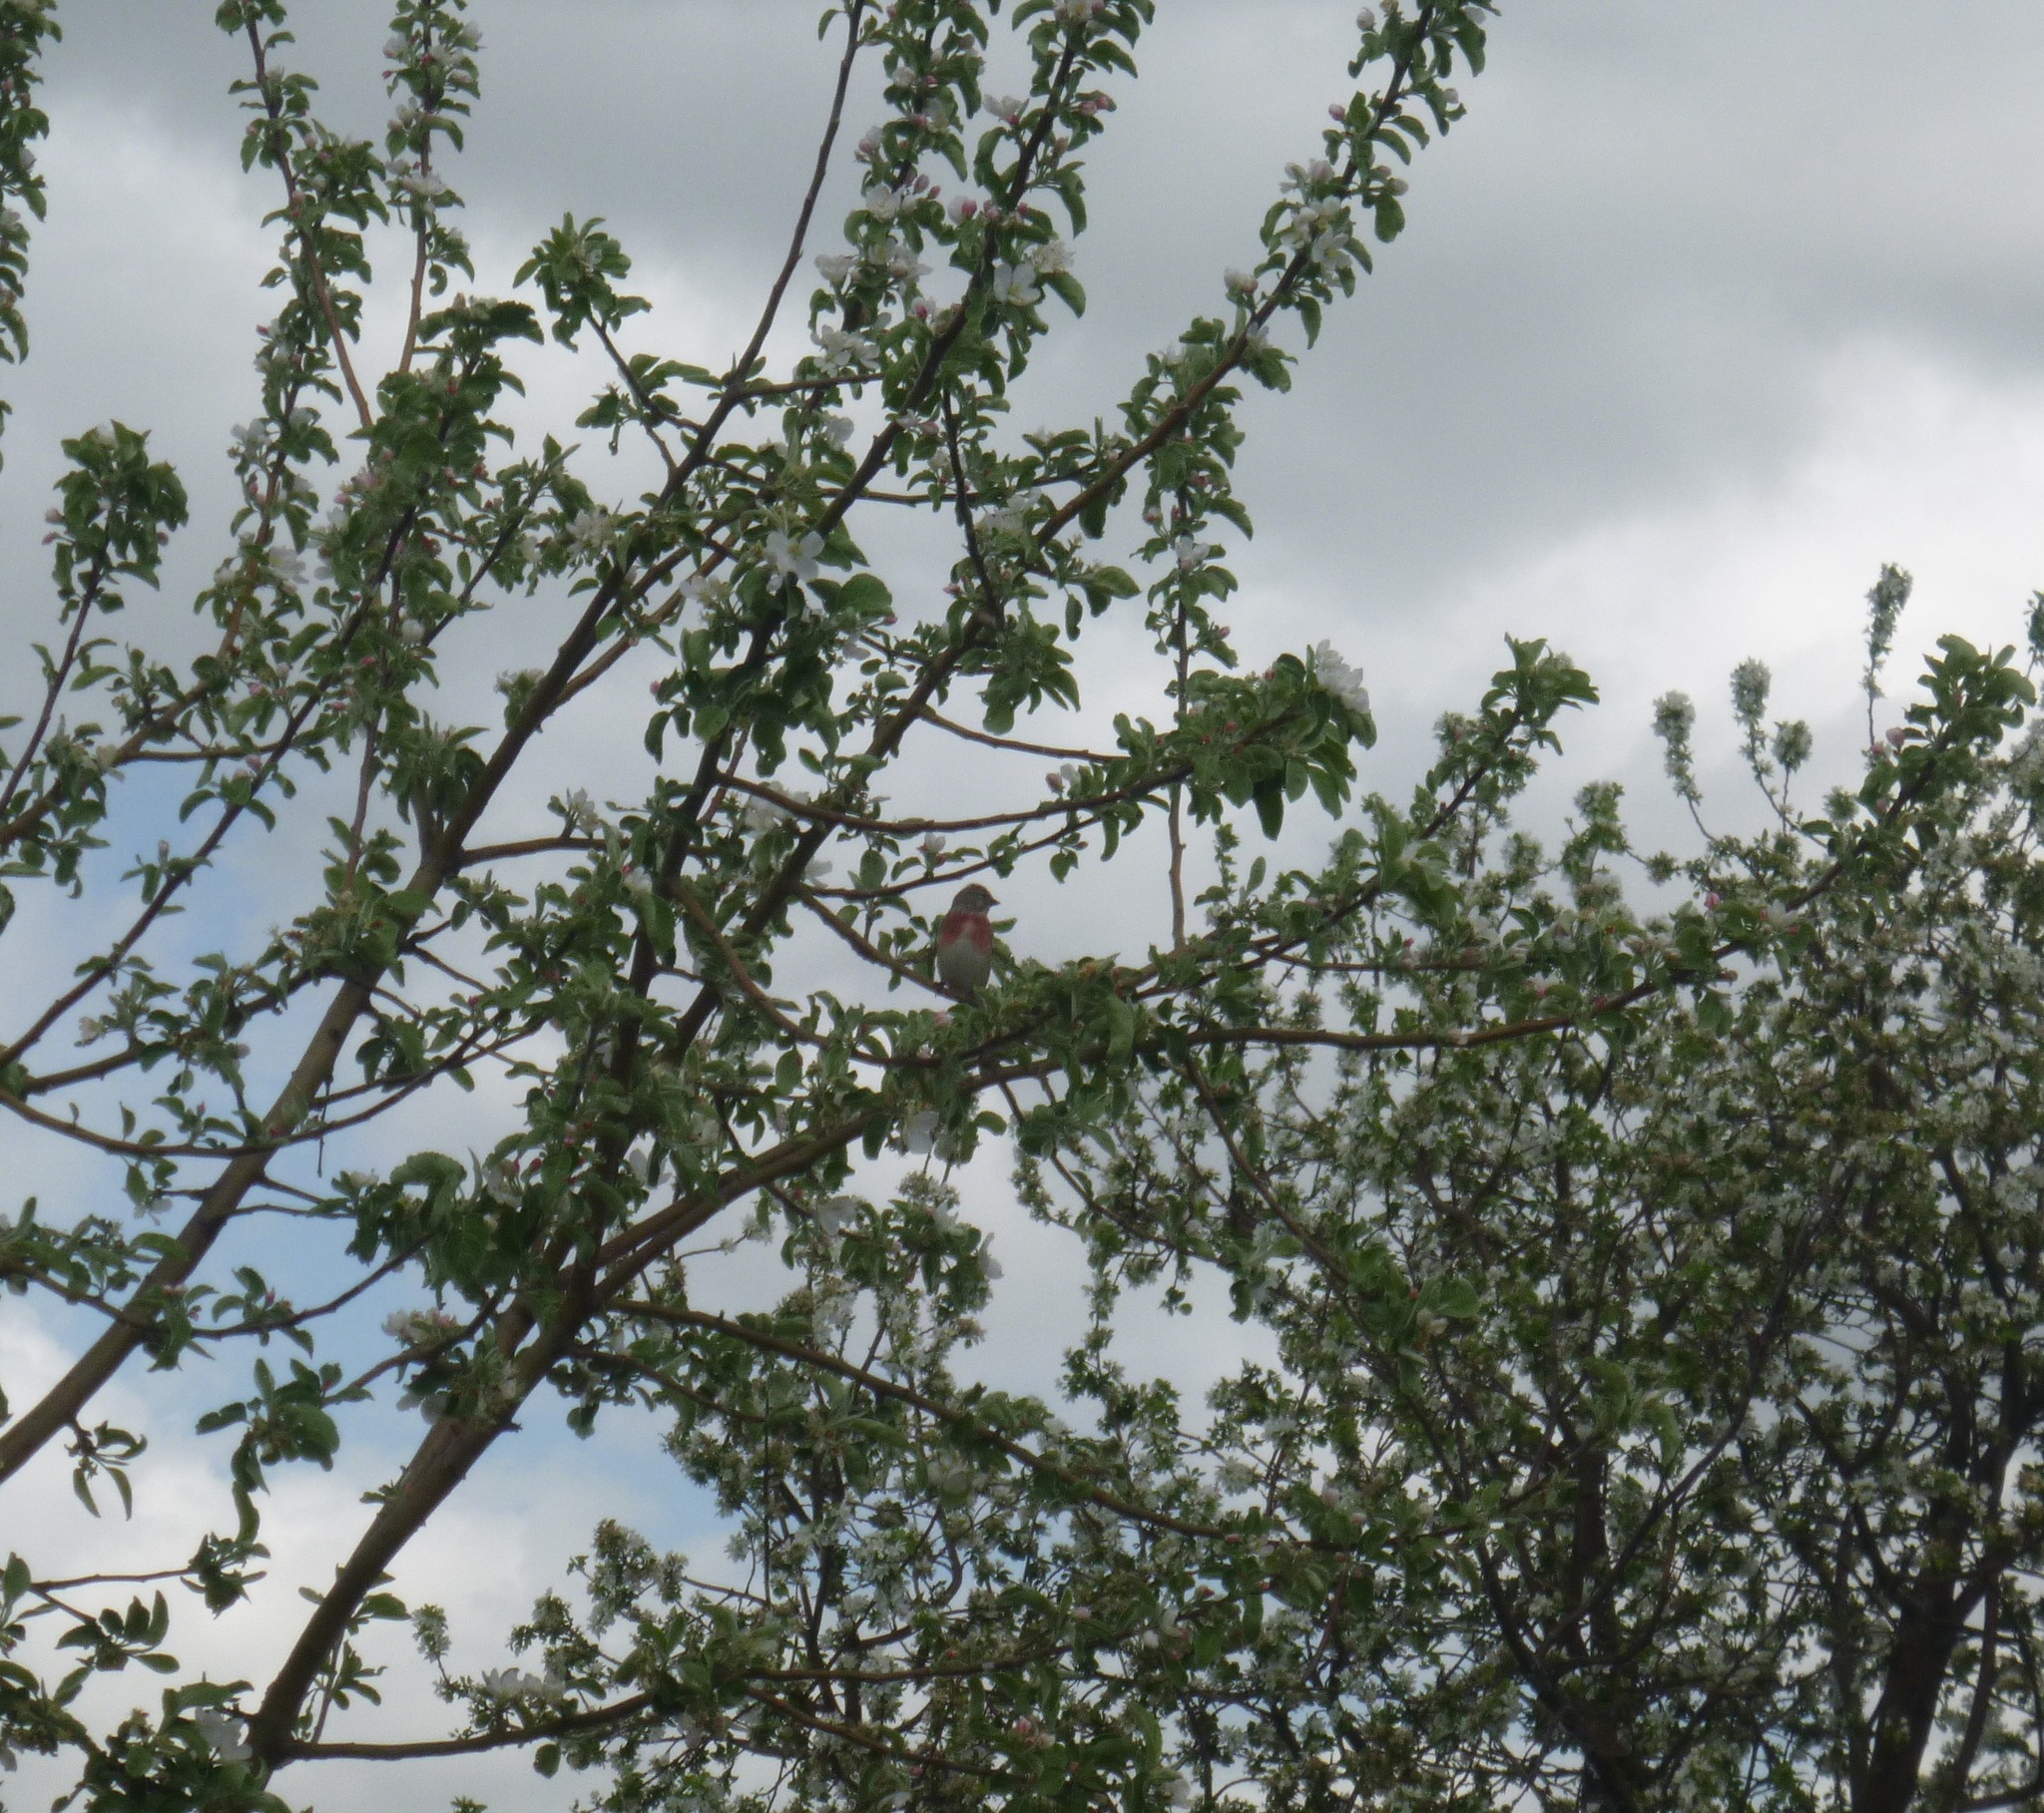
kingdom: Animalia
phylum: Chordata
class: Aves
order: Passeriformes
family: Fringillidae
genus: Linaria
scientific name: Linaria cannabina
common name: Common linnet
